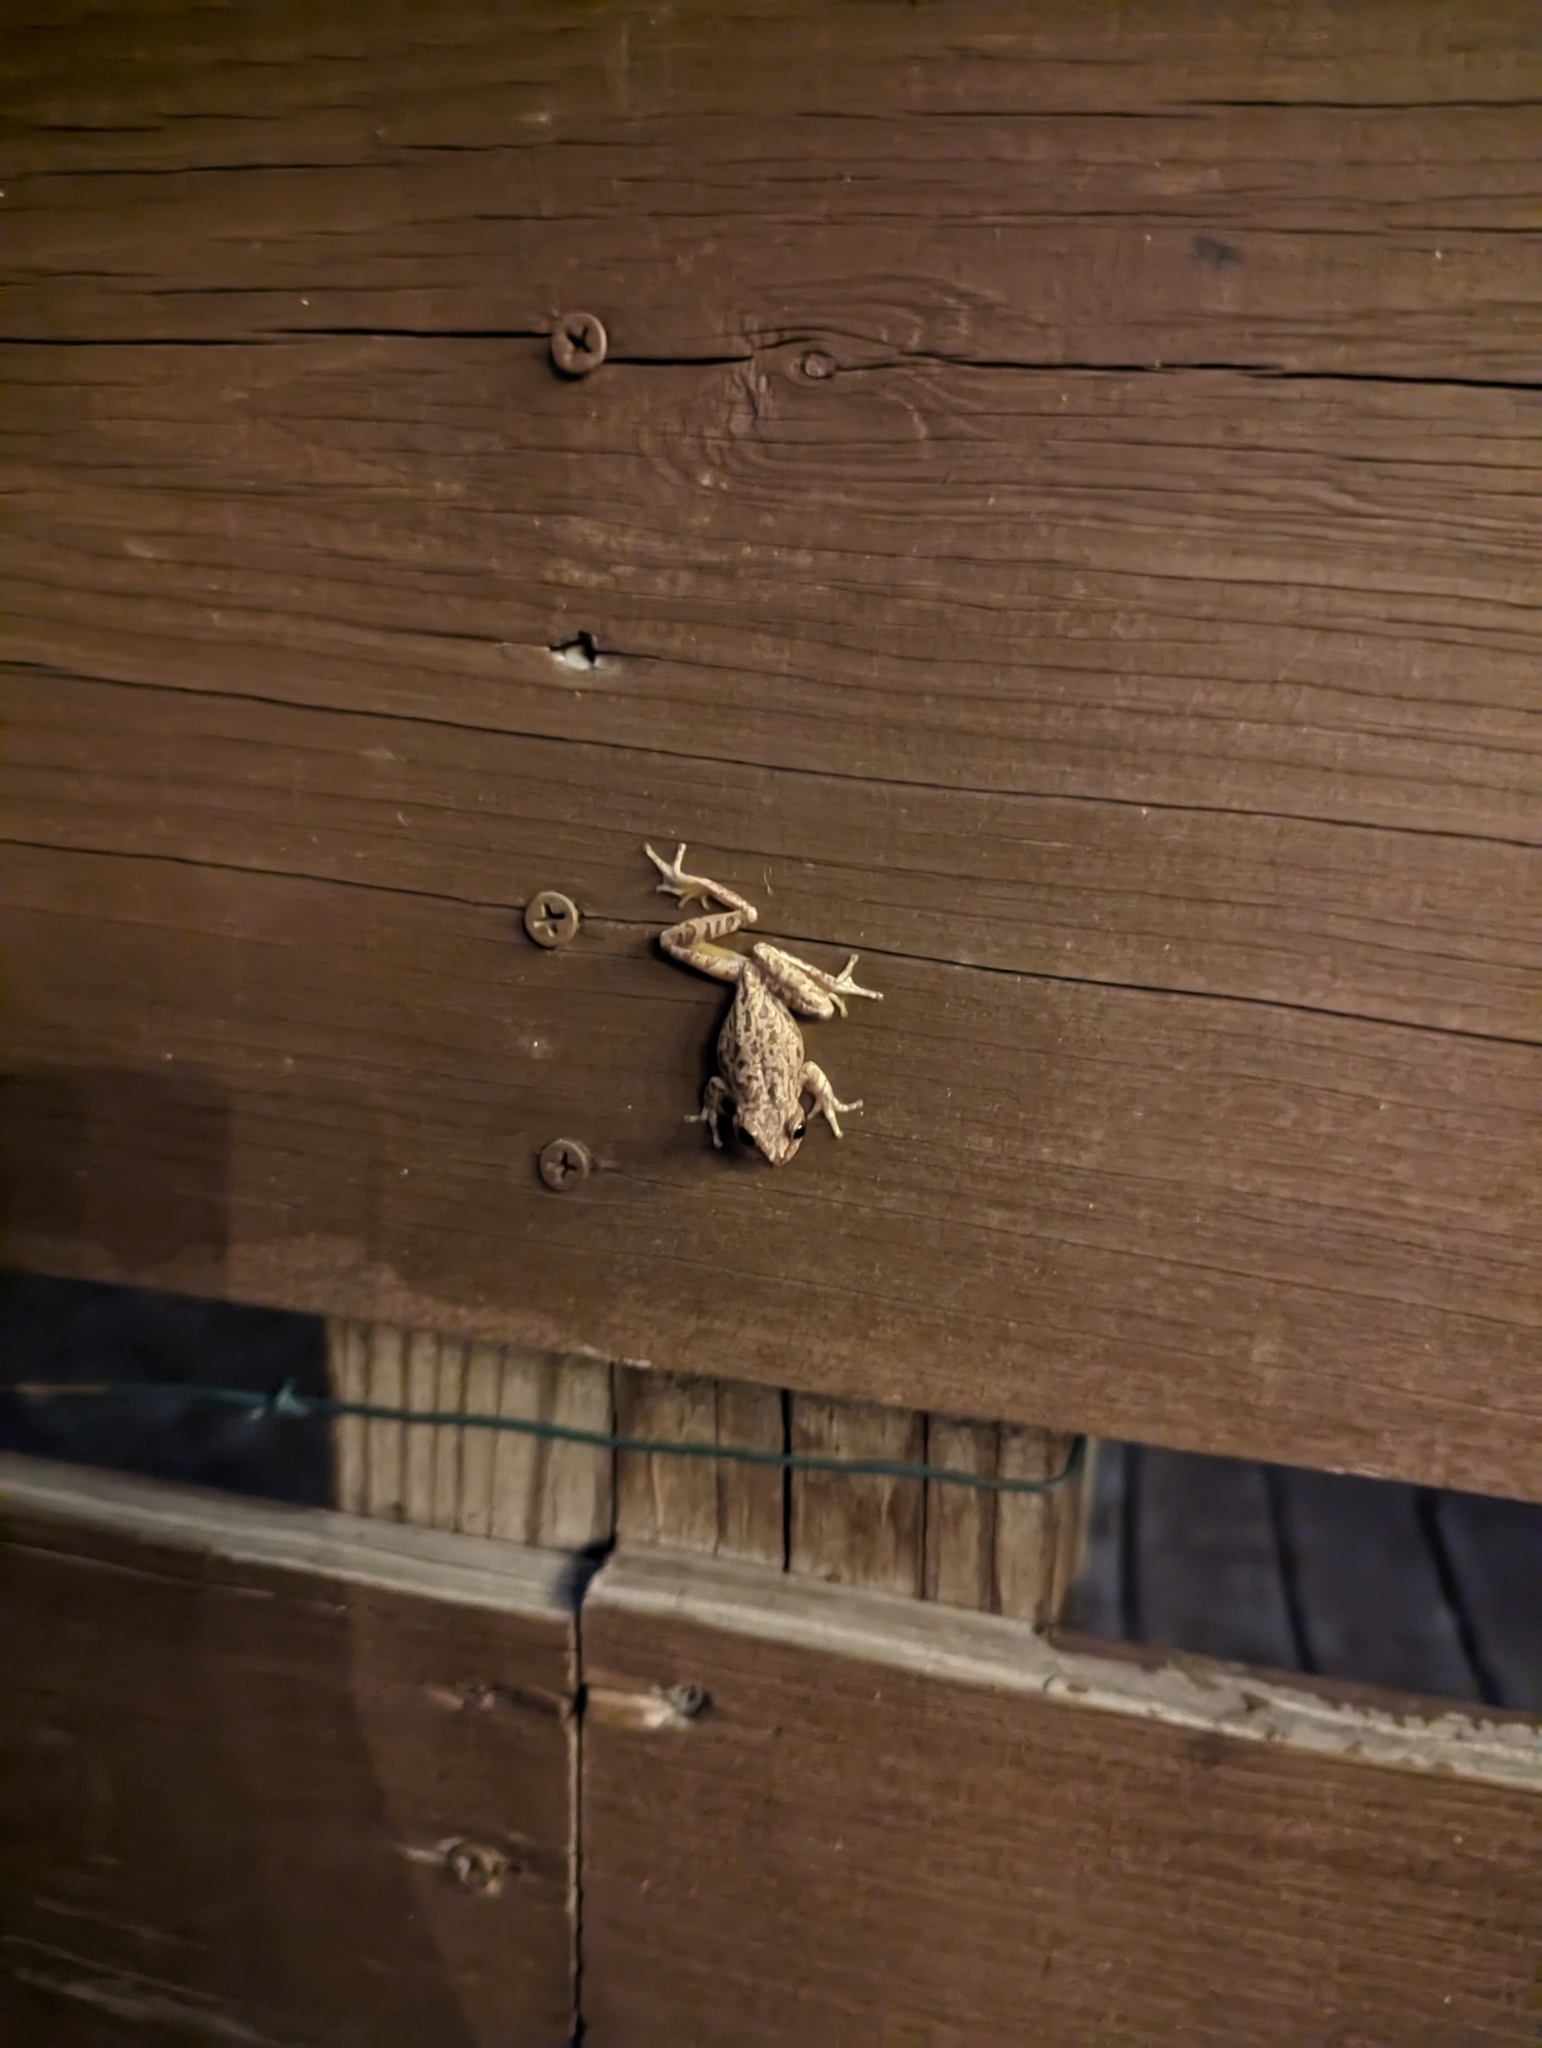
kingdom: Animalia
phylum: Chordata
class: Amphibia
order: Anura
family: Hylidae
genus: Dryophytes
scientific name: Dryophytes squirellus
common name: Squirrel treefrog
